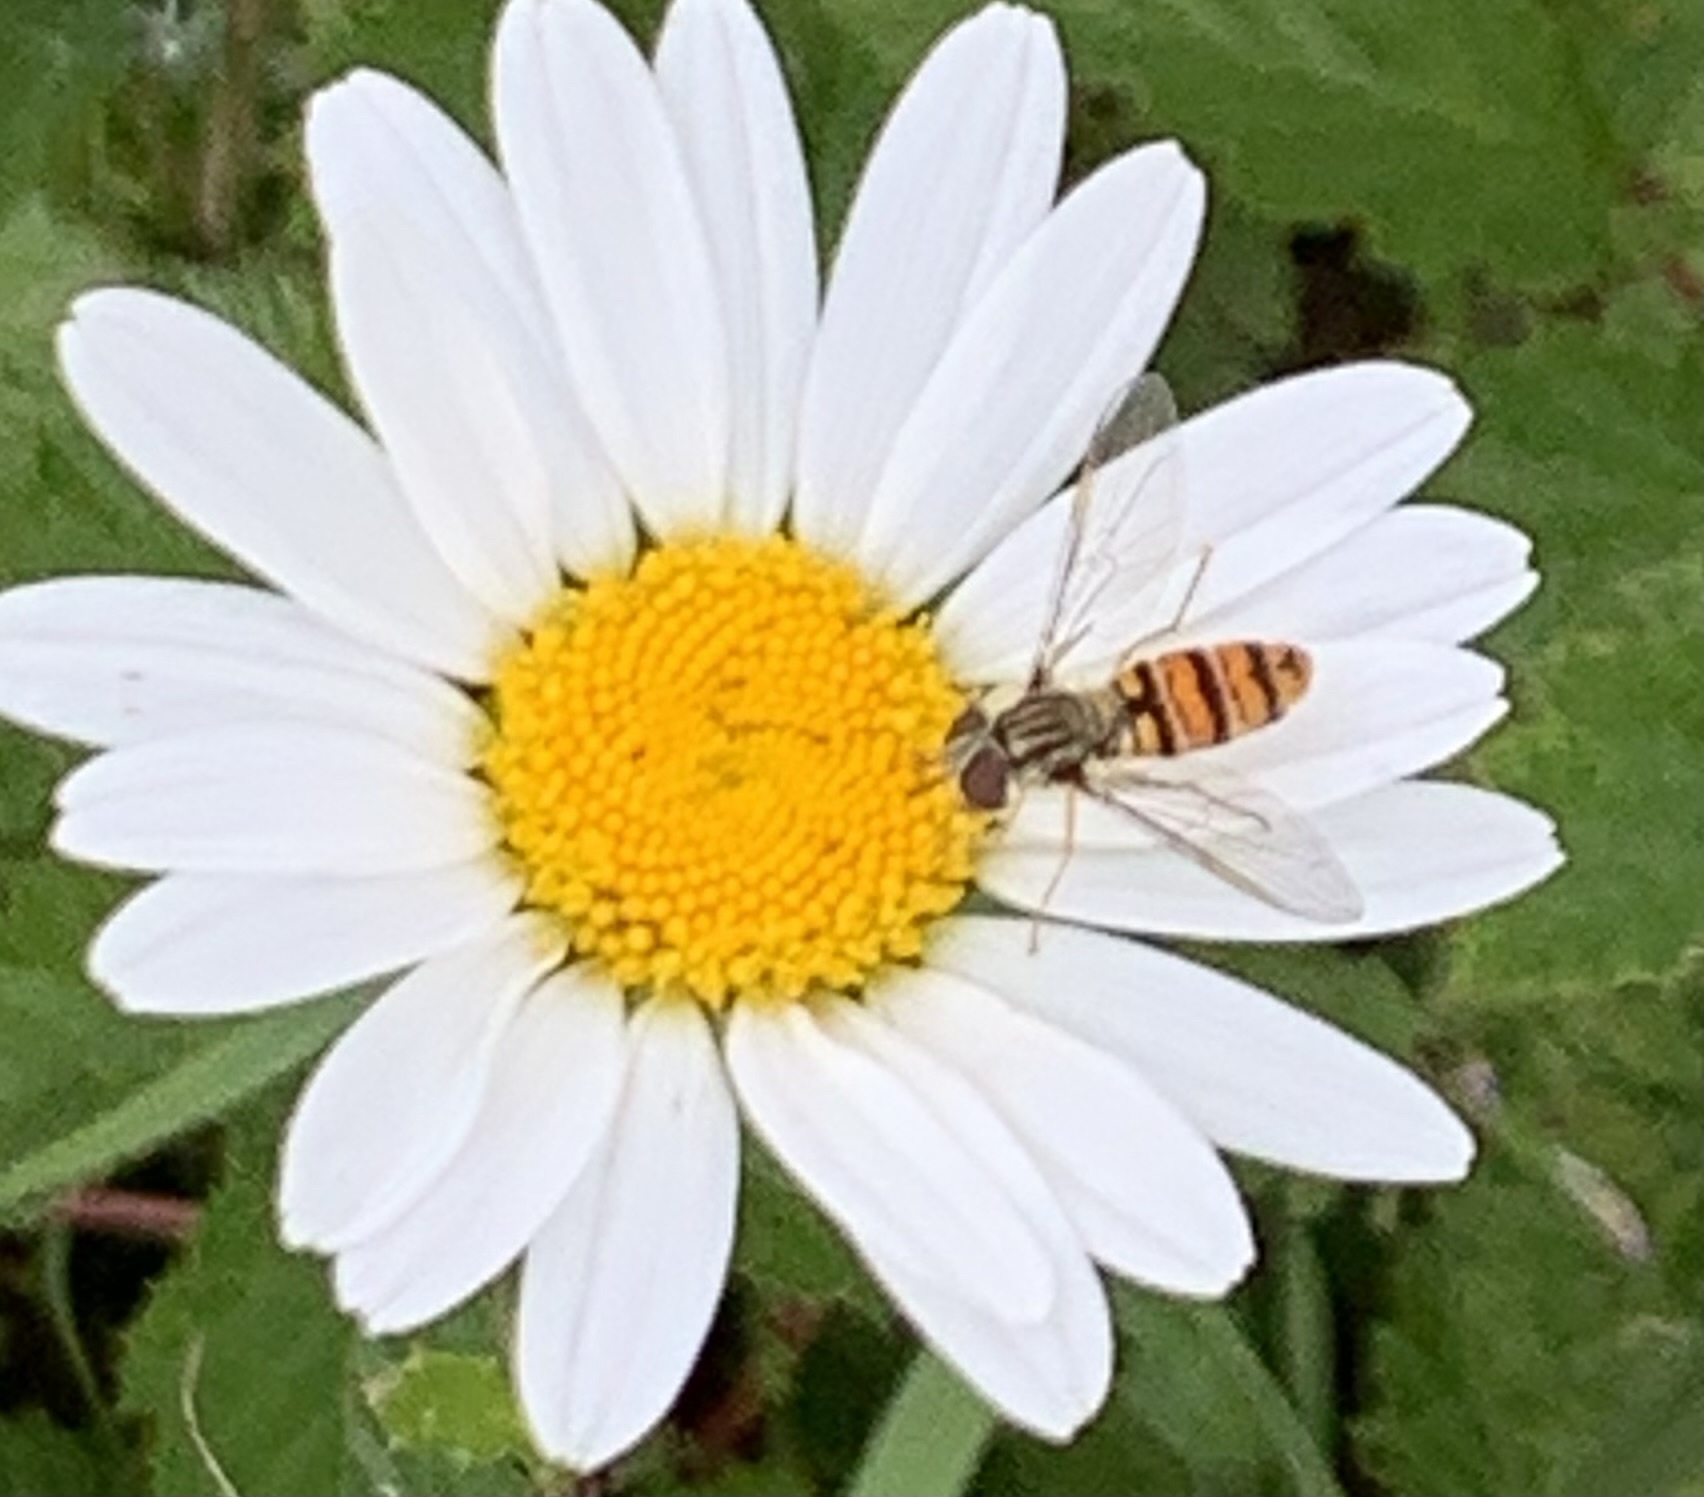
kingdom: Animalia
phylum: Arthropoda
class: Insecta
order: Diptera
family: Syrphidae
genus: Episyrphus
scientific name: Episyrphus balteatus
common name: Marmalade hoverfly
